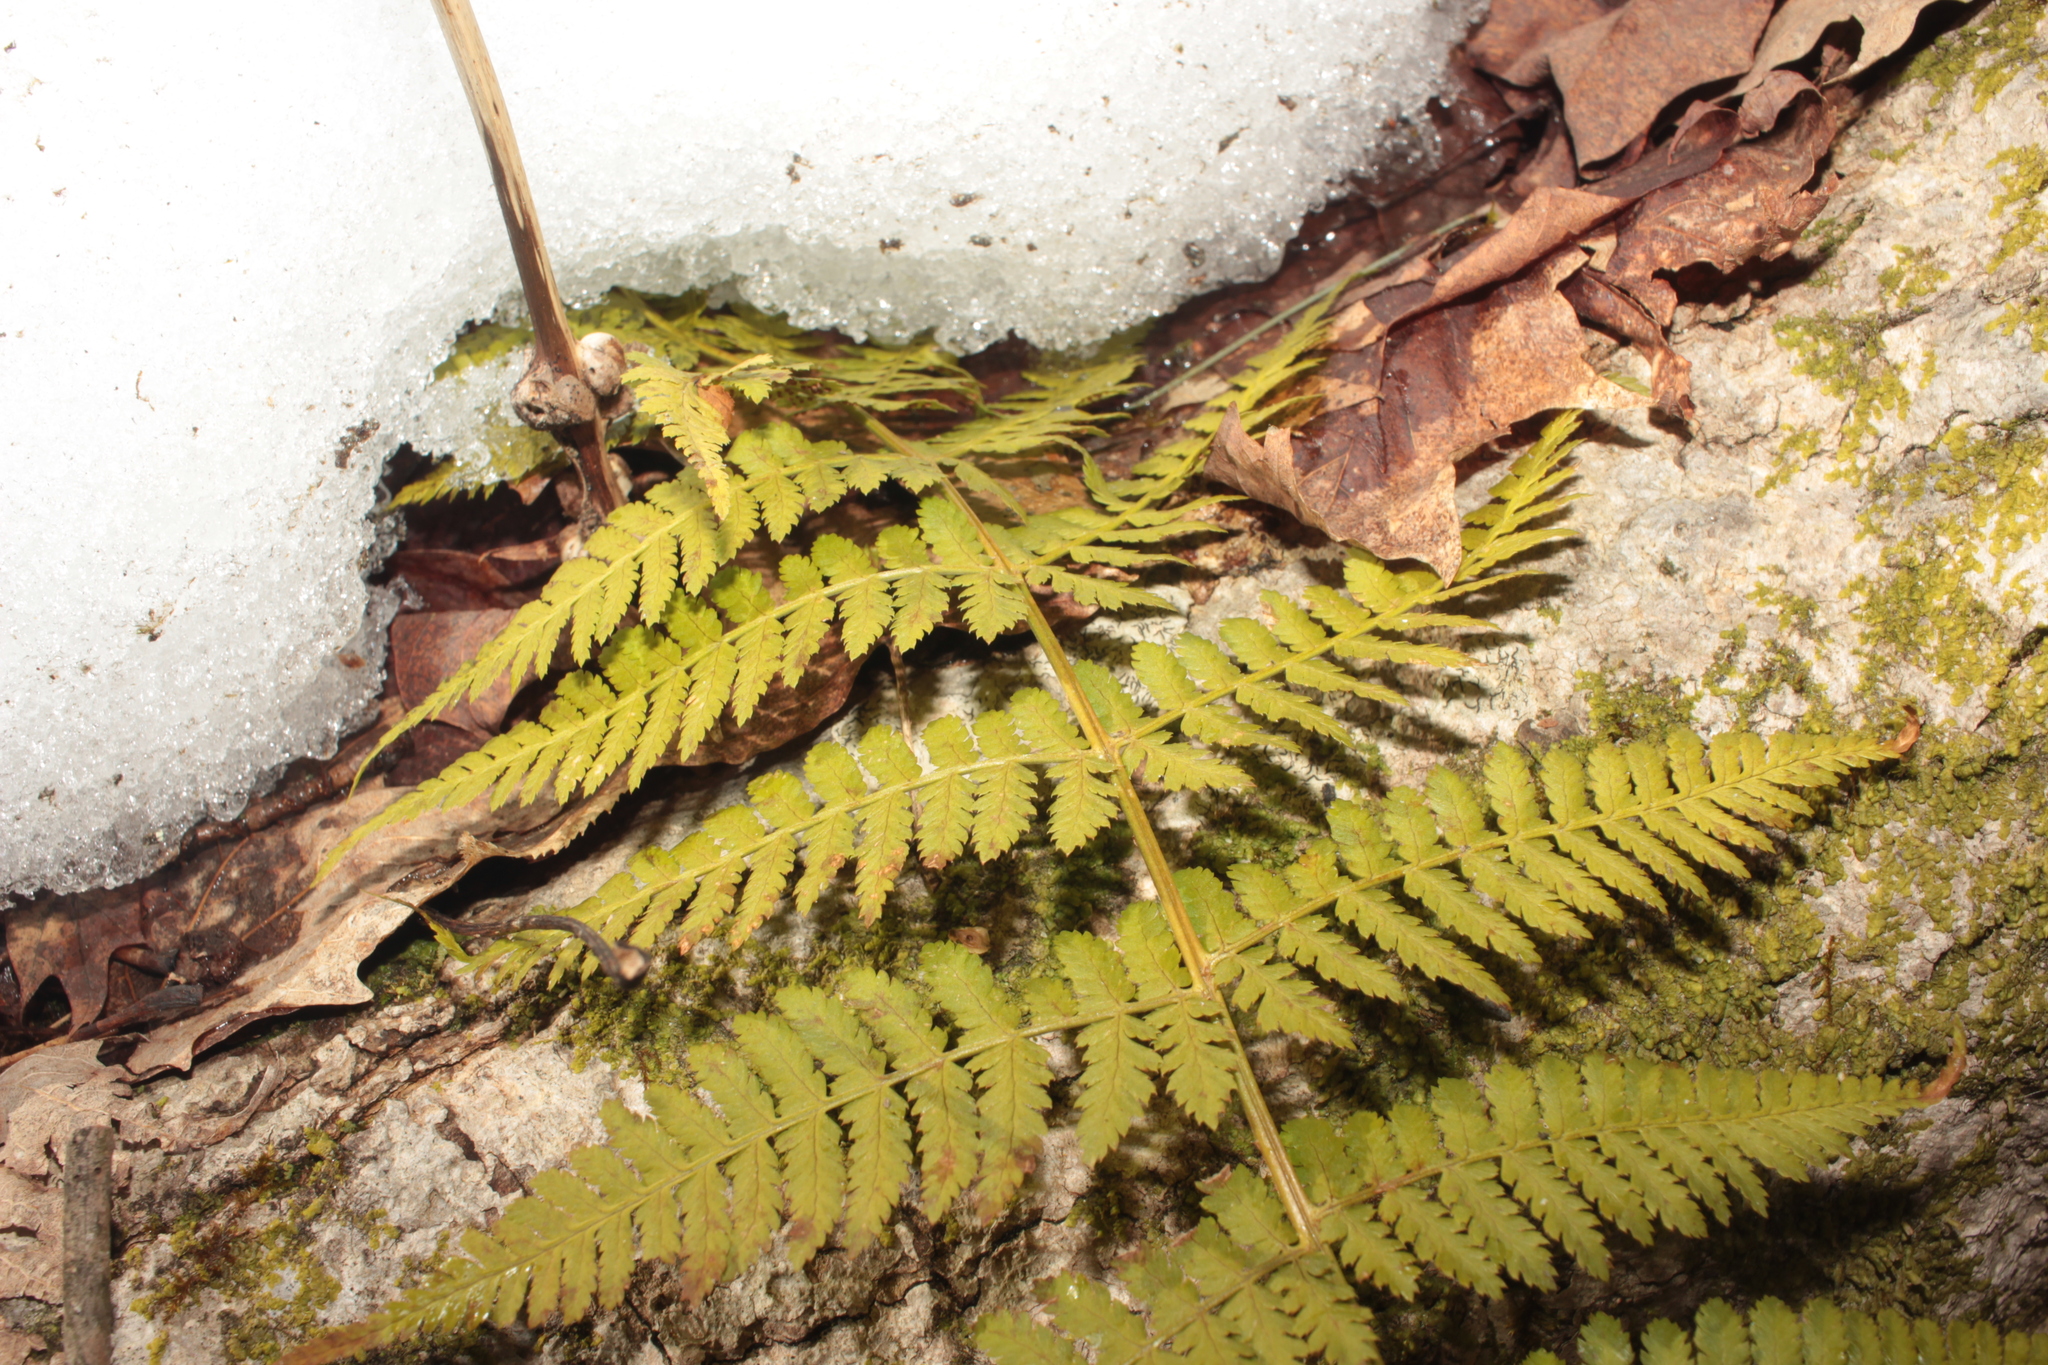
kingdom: Plantae
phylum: Tracheophyta
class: Polypodiopsida
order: Polypodiales
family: Dryopteridaceae
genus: Dryopteris
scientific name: Dryopteris intermedia
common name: Evergreen wood fern
